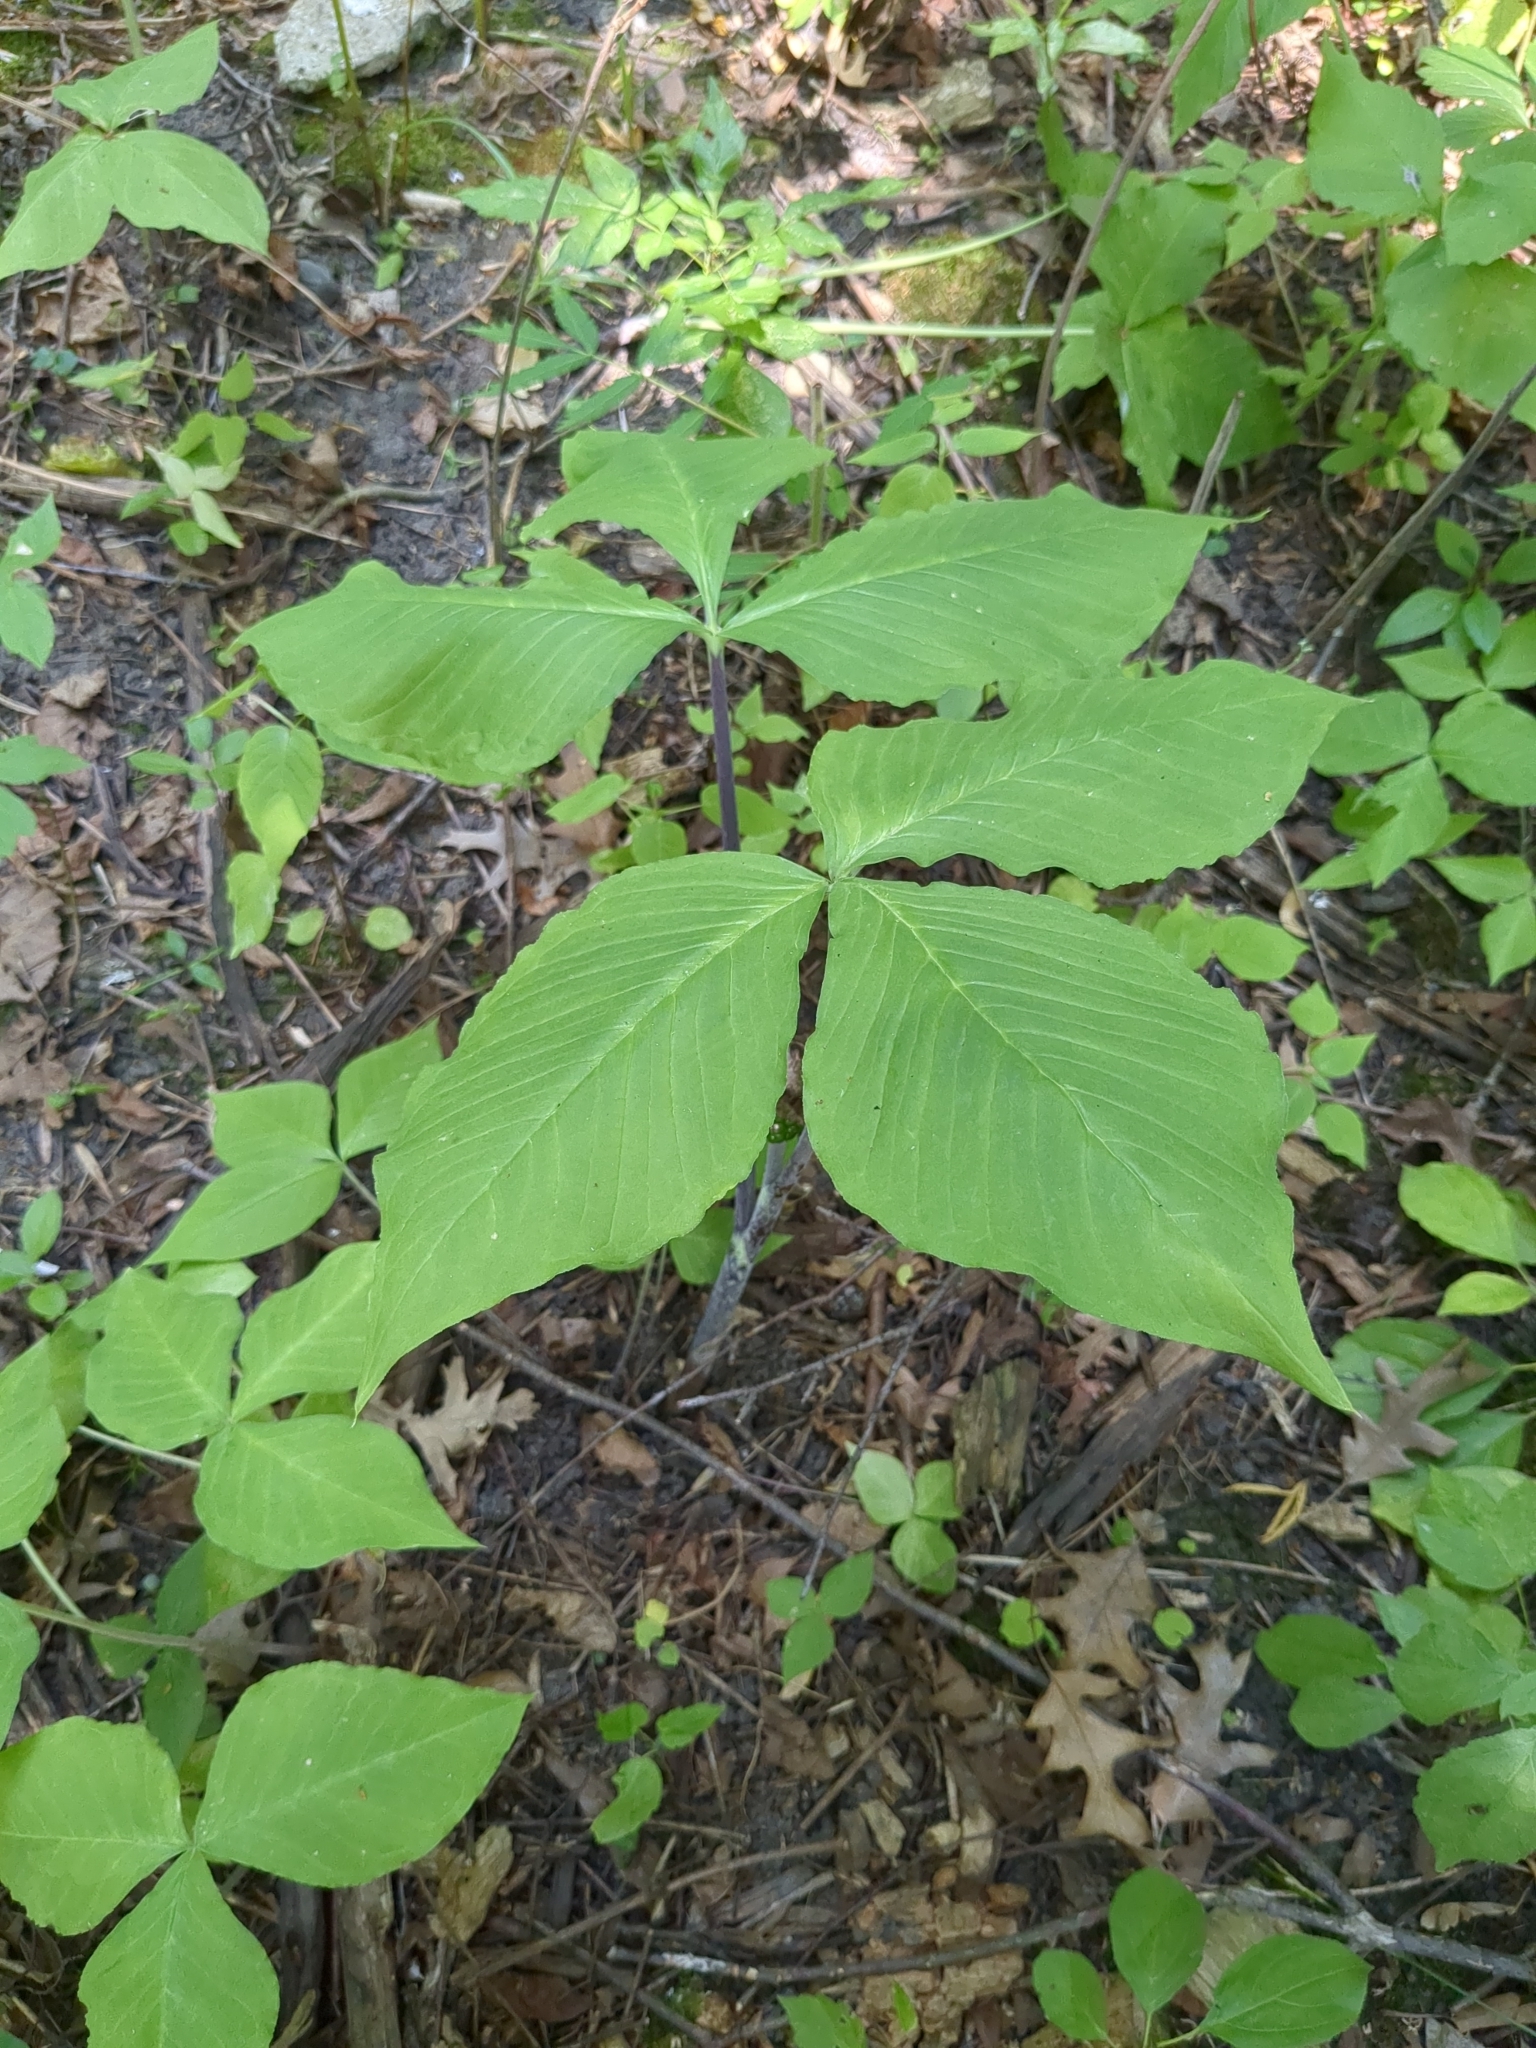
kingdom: Plantae
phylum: Tracheophyta
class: Liliopsida
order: Alismatales
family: Araceae
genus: Arisaema
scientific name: Arisaema triphyllum
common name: Jack-in-the-pulpit
